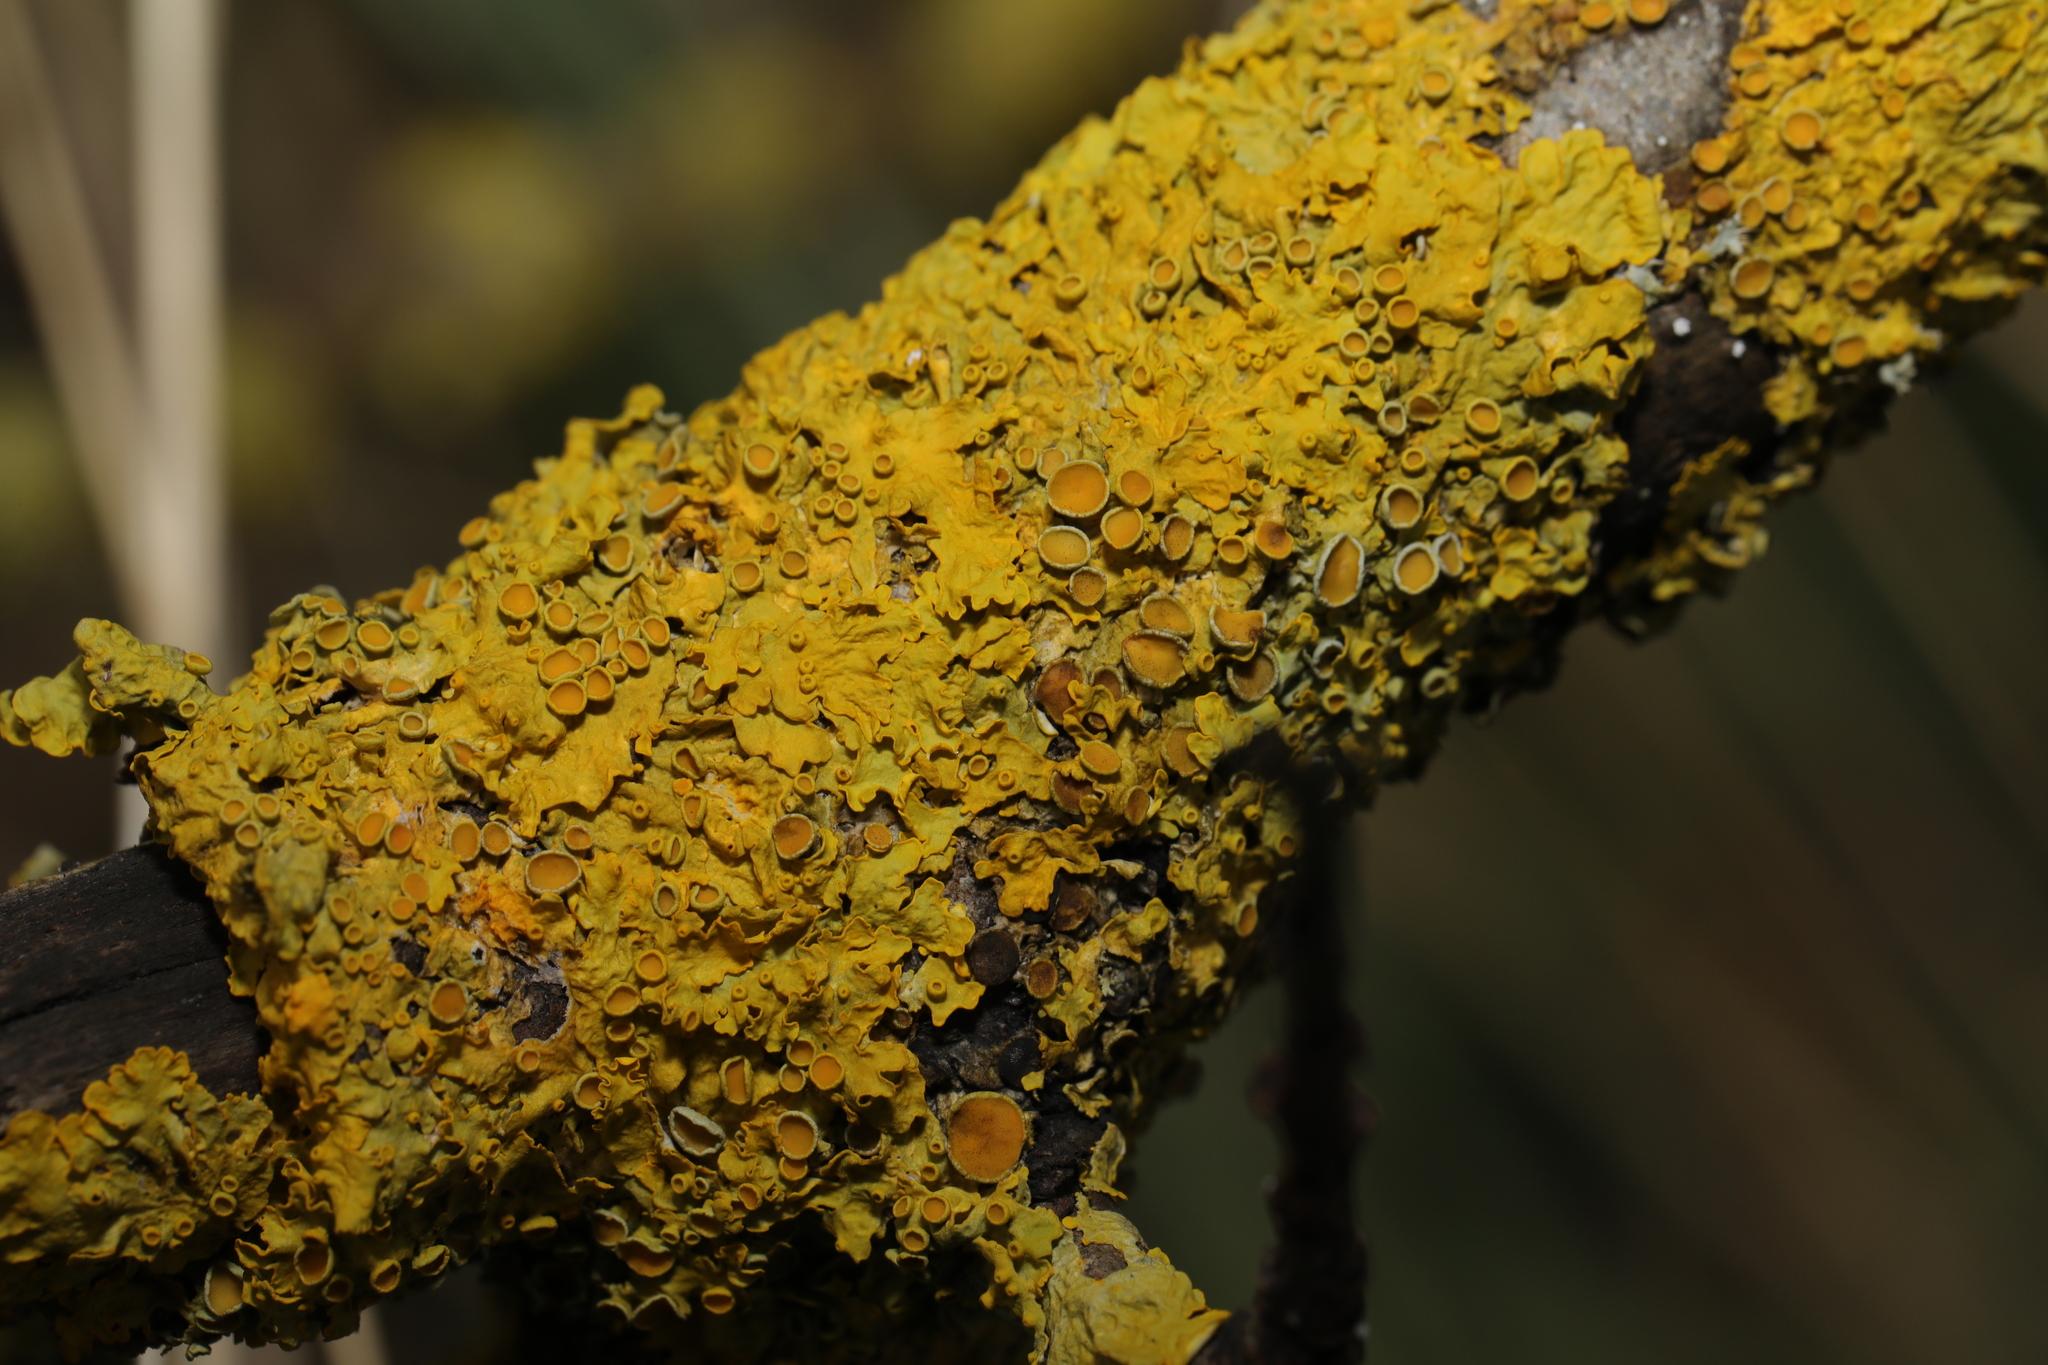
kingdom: Fungi
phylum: Ascomycota
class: Lecanoromycetes
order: Teloschistales
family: Teloschistaceae
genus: Xanthoria
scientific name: Xanthoria parietina
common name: Common orange lichen
